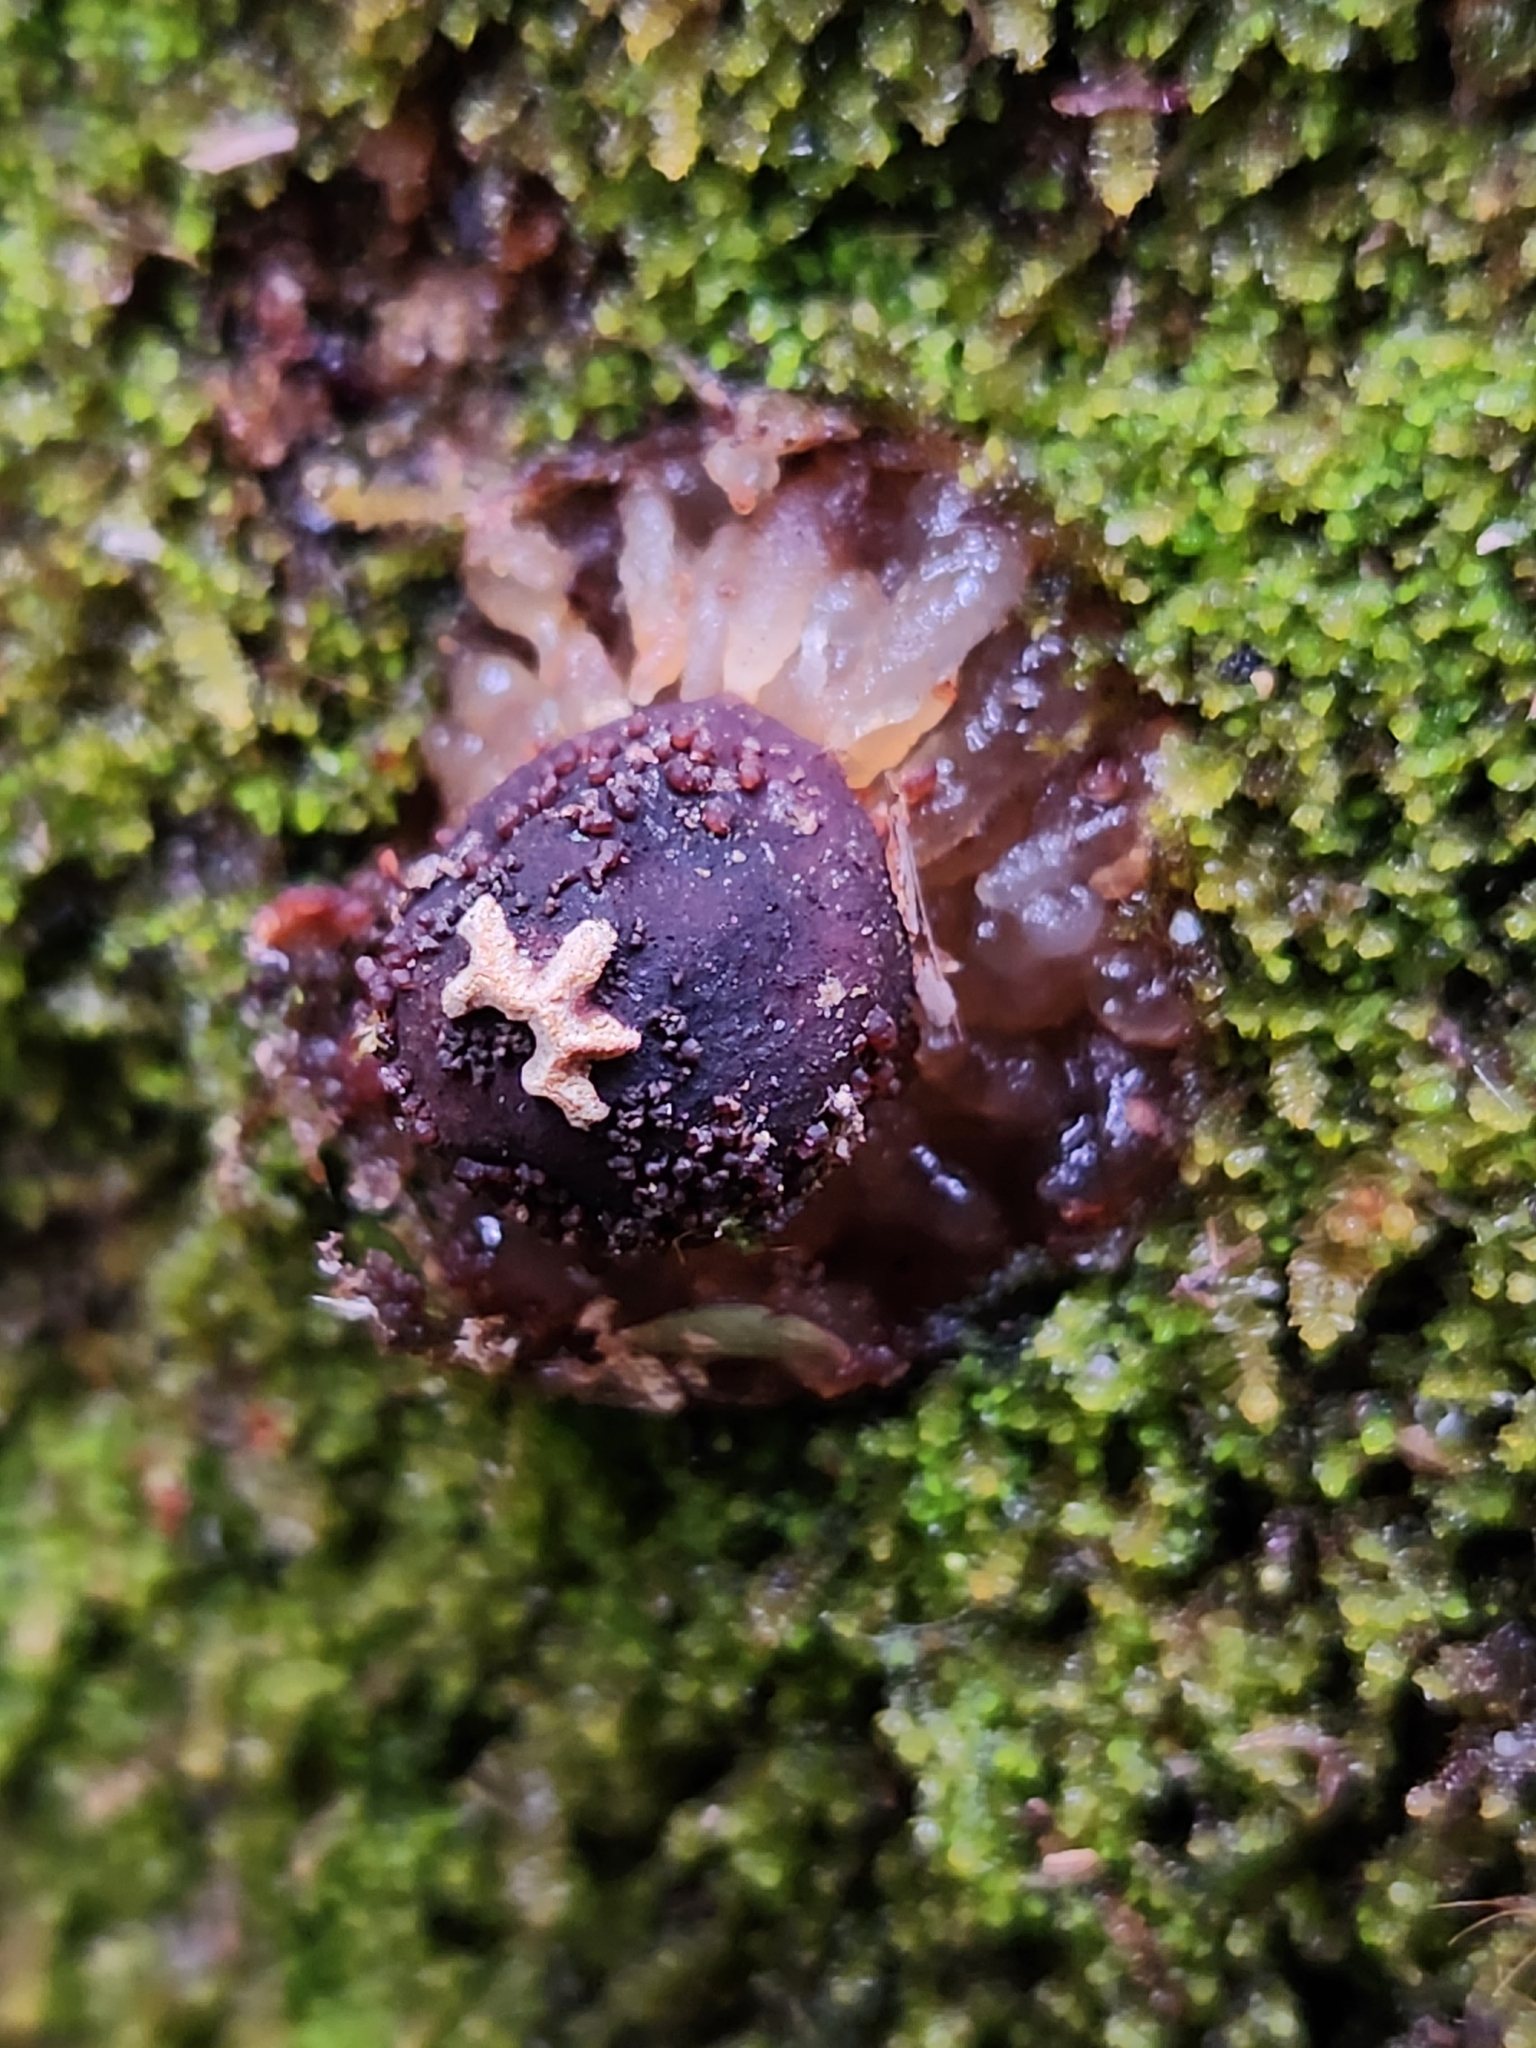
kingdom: Fungi
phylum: Basidiomycota
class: Agaricomycetes
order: Boletales
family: Calostomataceae
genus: Calostoma
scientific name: Calostoma rodwayi
